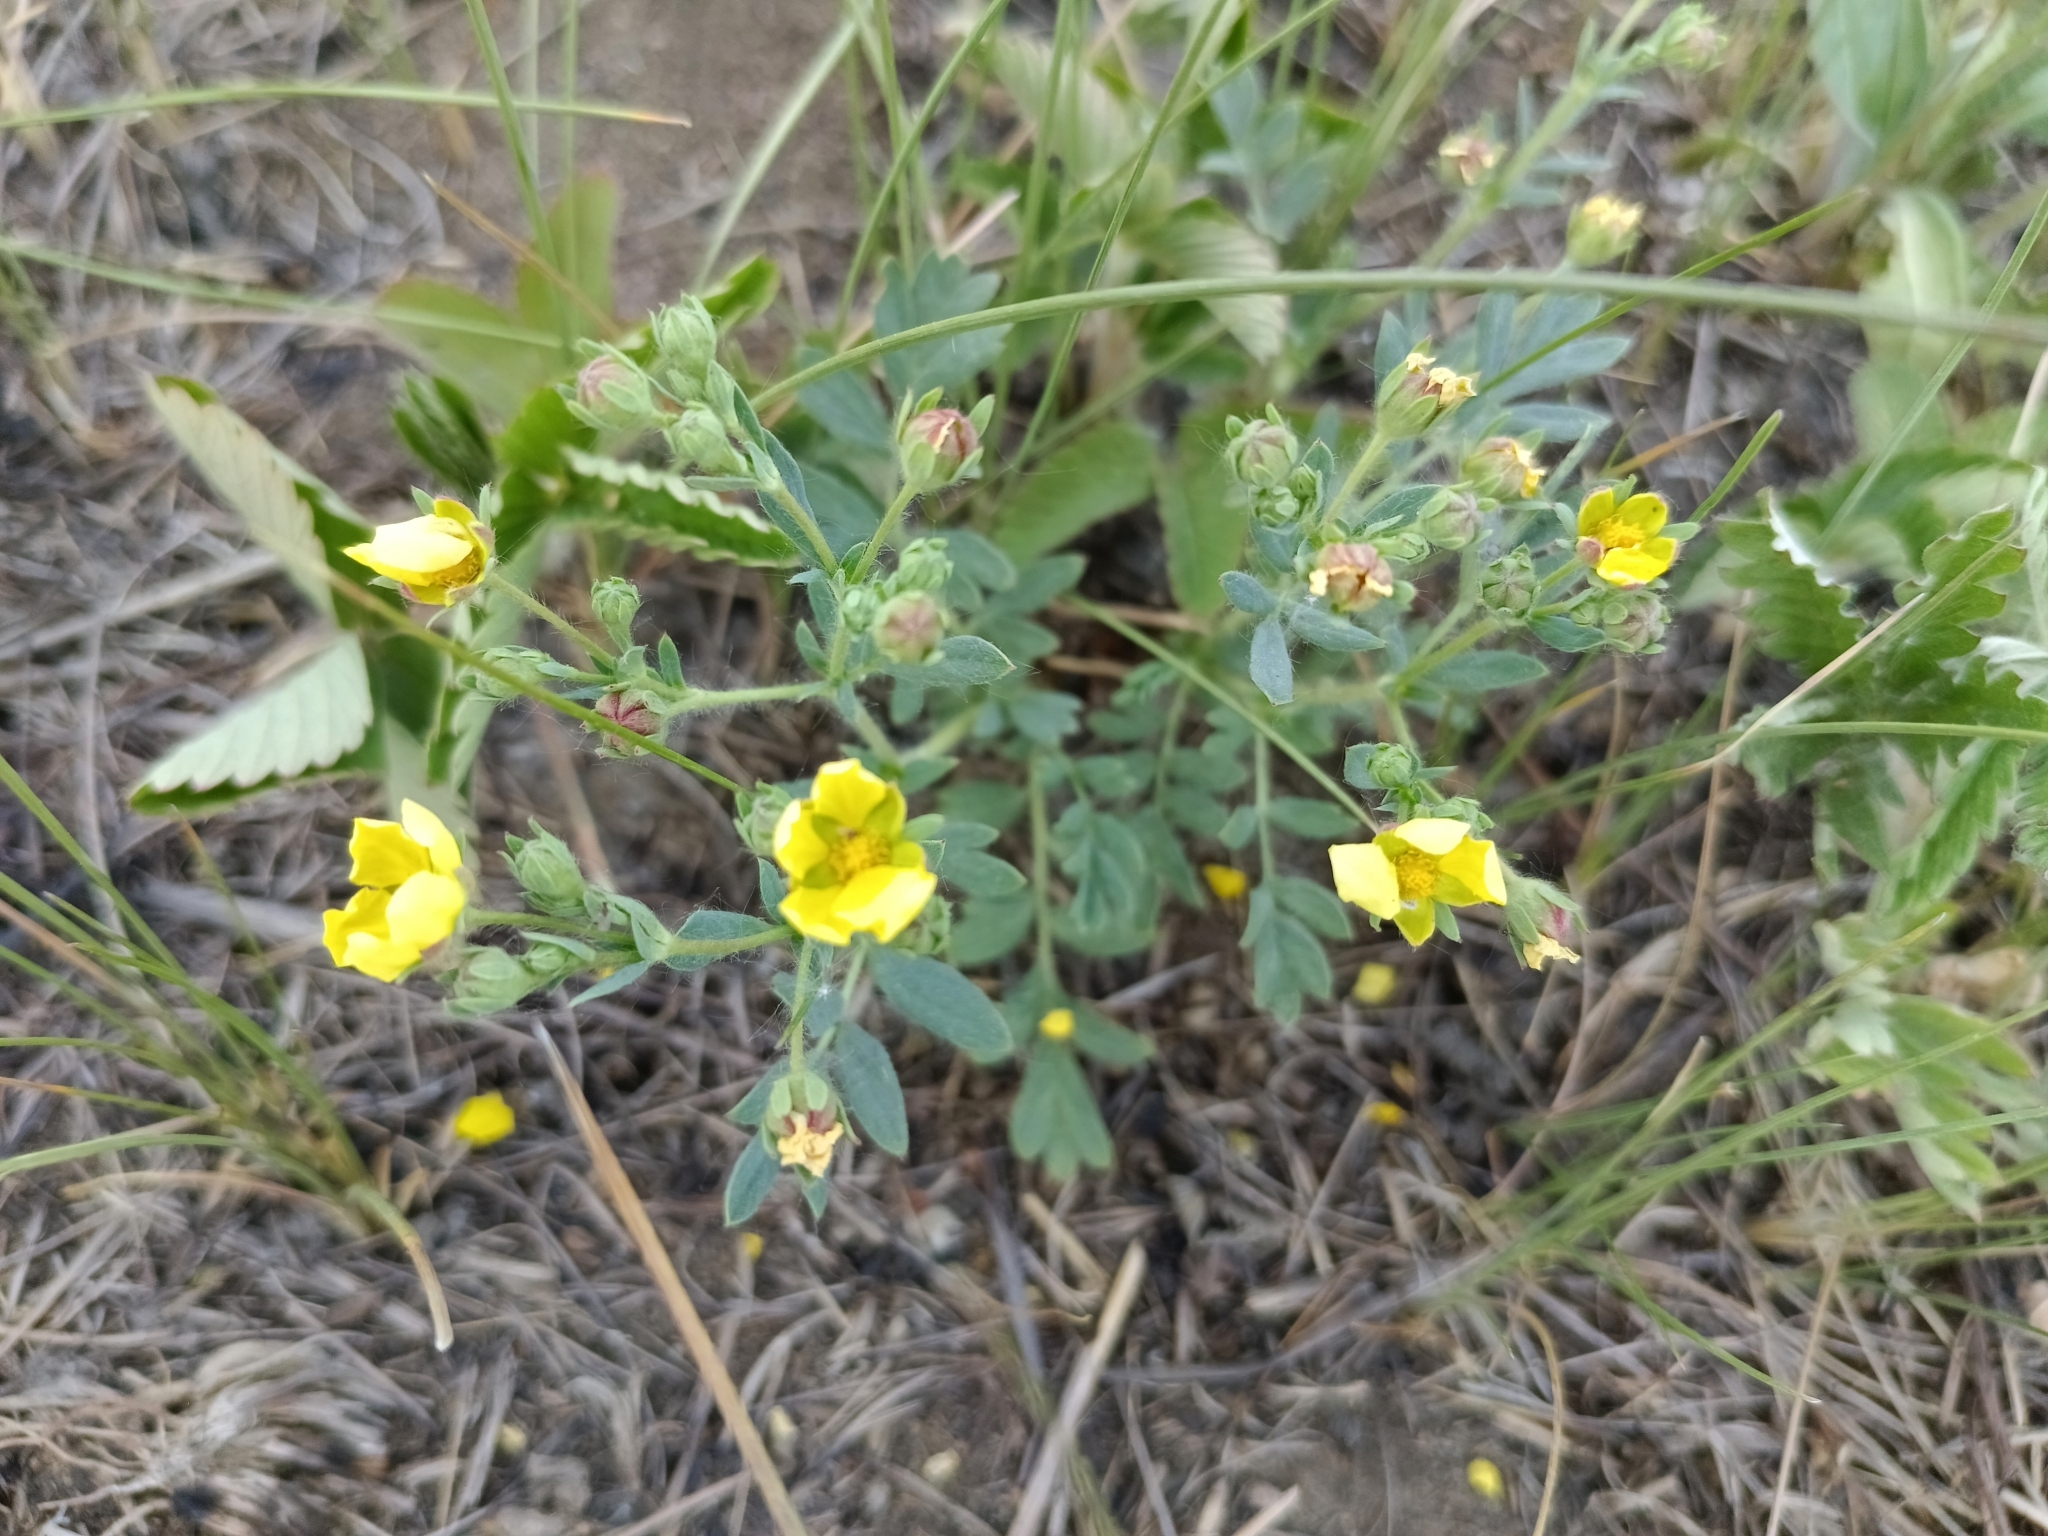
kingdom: Plantae
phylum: Tracheophyta
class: Magnoliopsida
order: Rosales
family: Rosaceae
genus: Sibbaldianthe
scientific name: Sibbaldianthe bifurca
